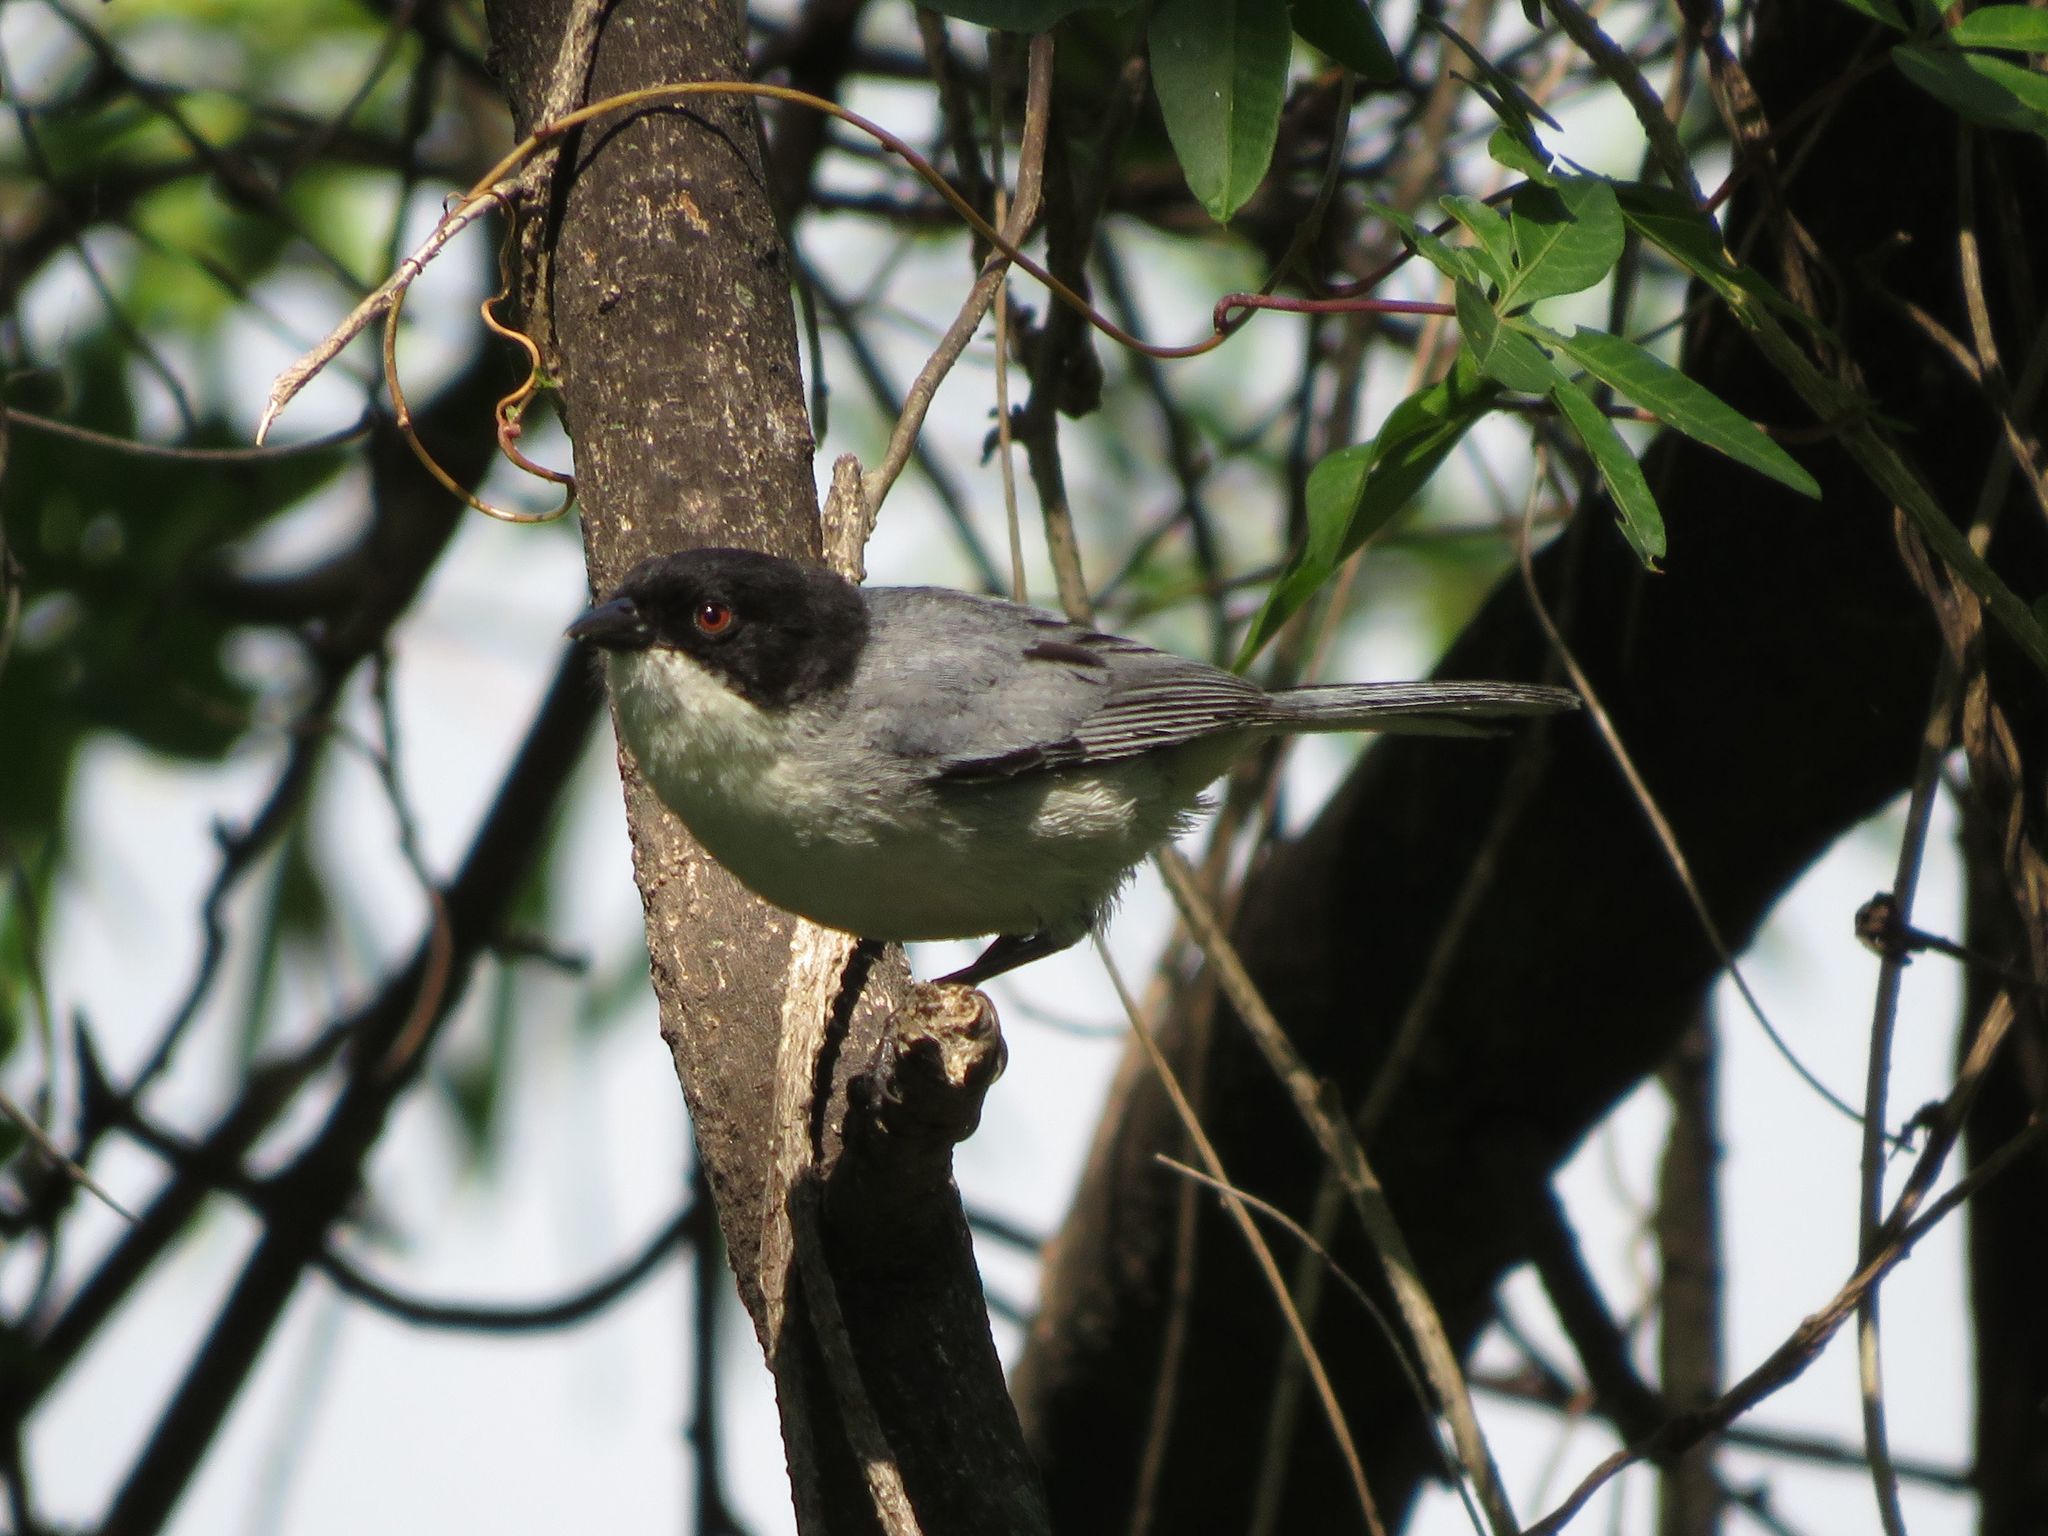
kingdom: Animalia
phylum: Chordata
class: Aves
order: Passeriformes
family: Thraupidae
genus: Microspingus
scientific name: Microspingus melanoleucus
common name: Black-capped warbling-finch
